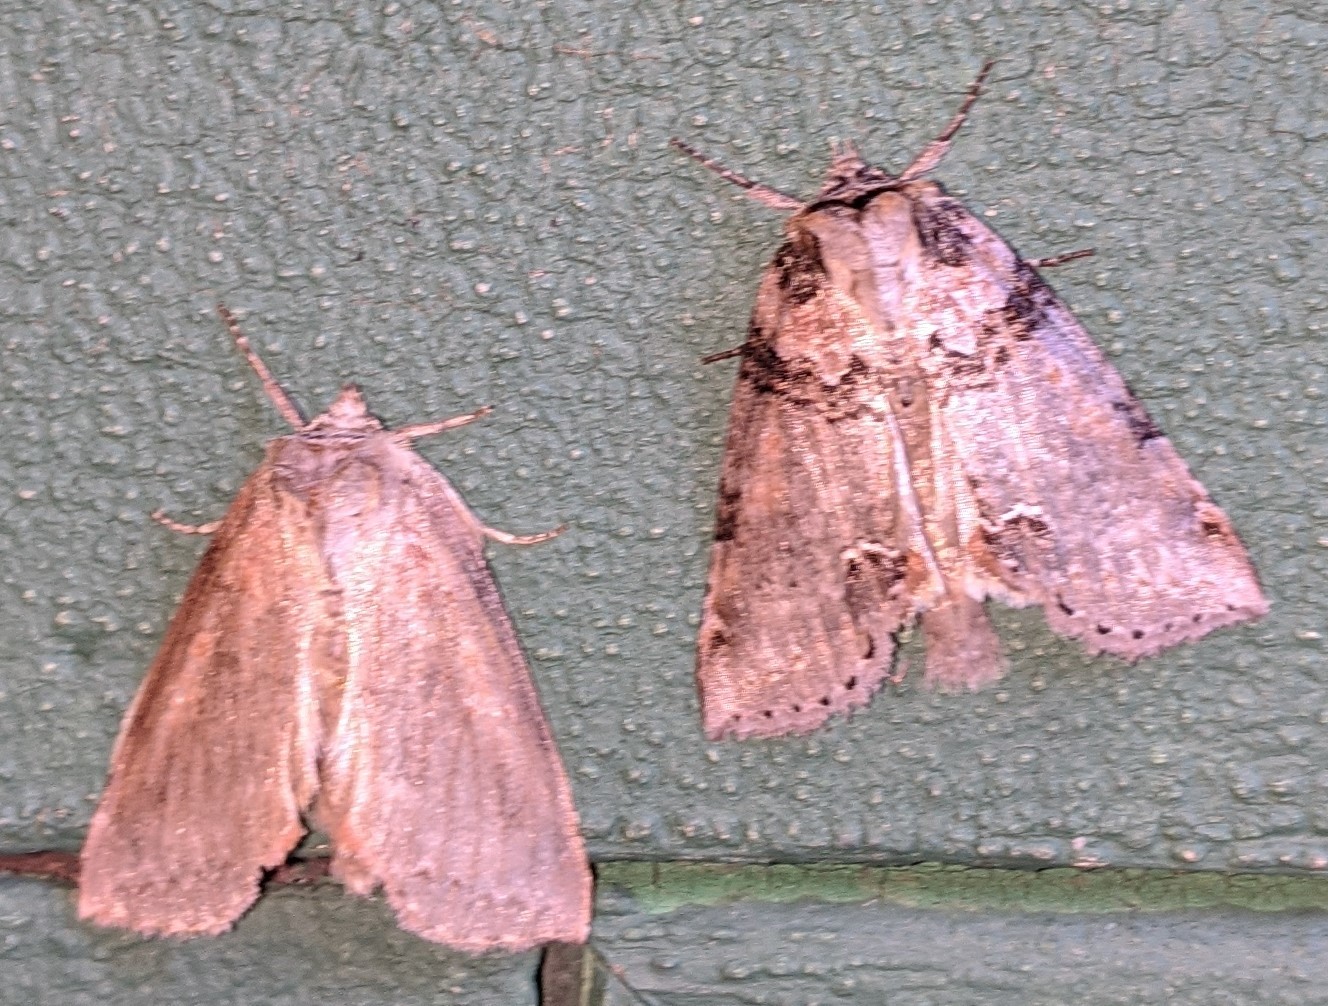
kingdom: Animalia
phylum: Arthropoda
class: Insecta
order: Lepidoptera
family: Drepanidae
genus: Pseudothyatira
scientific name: Pseudothyatira cymatophoroides
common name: Tufted thyatirid moth
